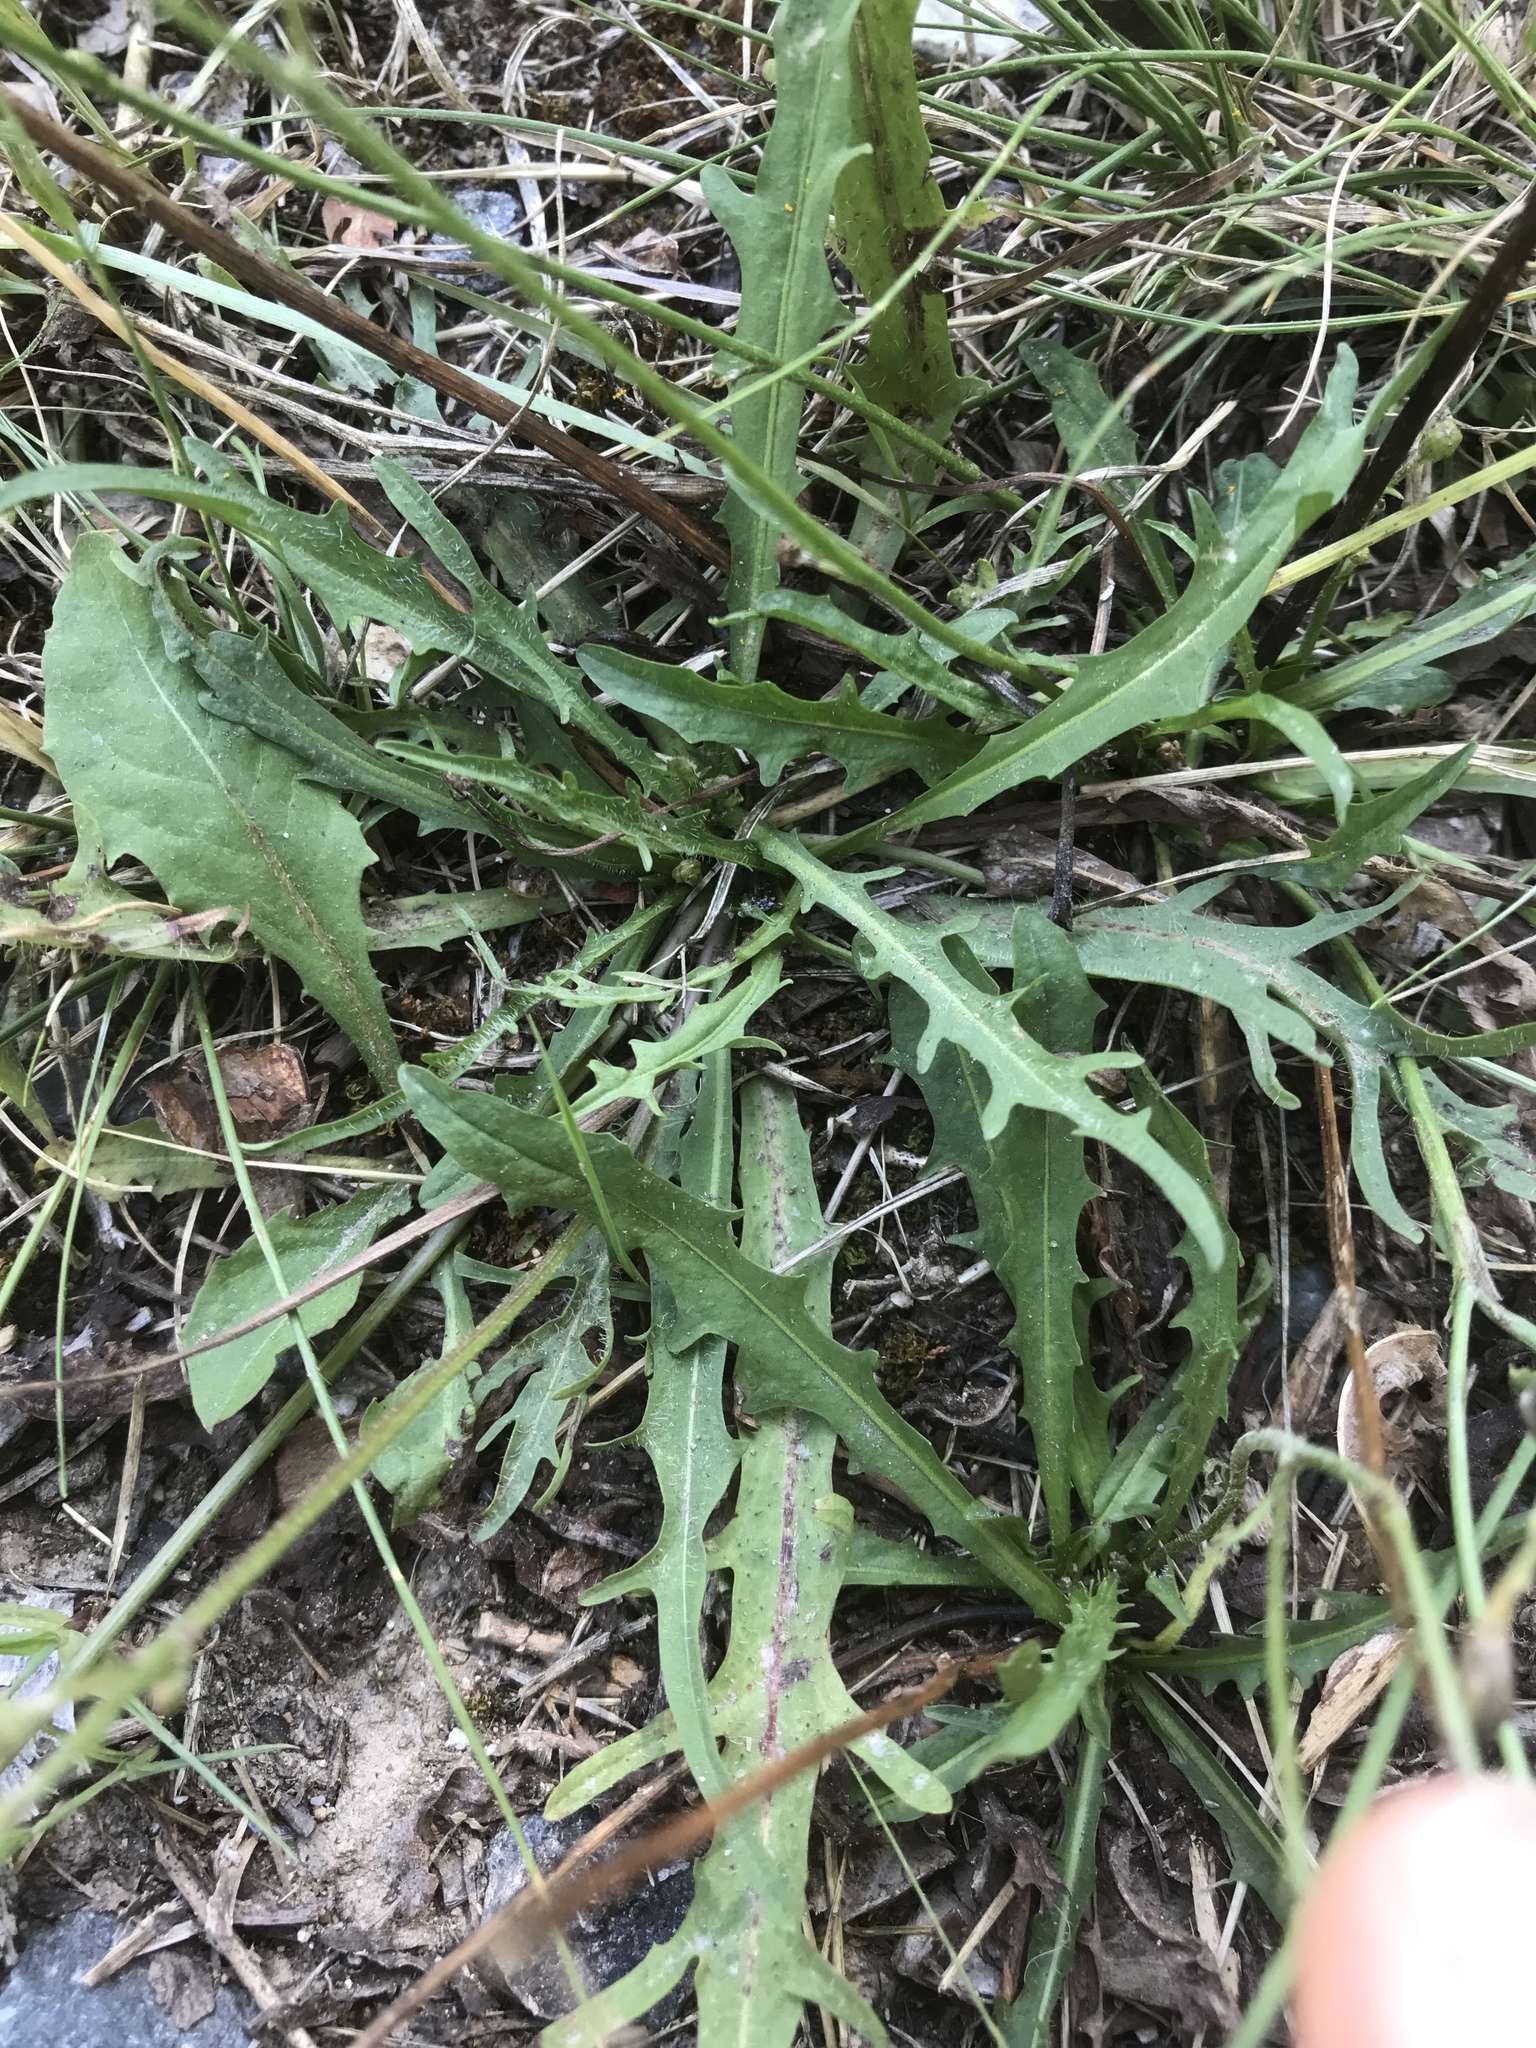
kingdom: Plantae
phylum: Tracheophyta
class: Magnoliopsida
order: Asterales
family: Asteraceae
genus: Scorzoneroides
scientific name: Scorzoneroides autumnalis
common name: Autumn hawkbit
